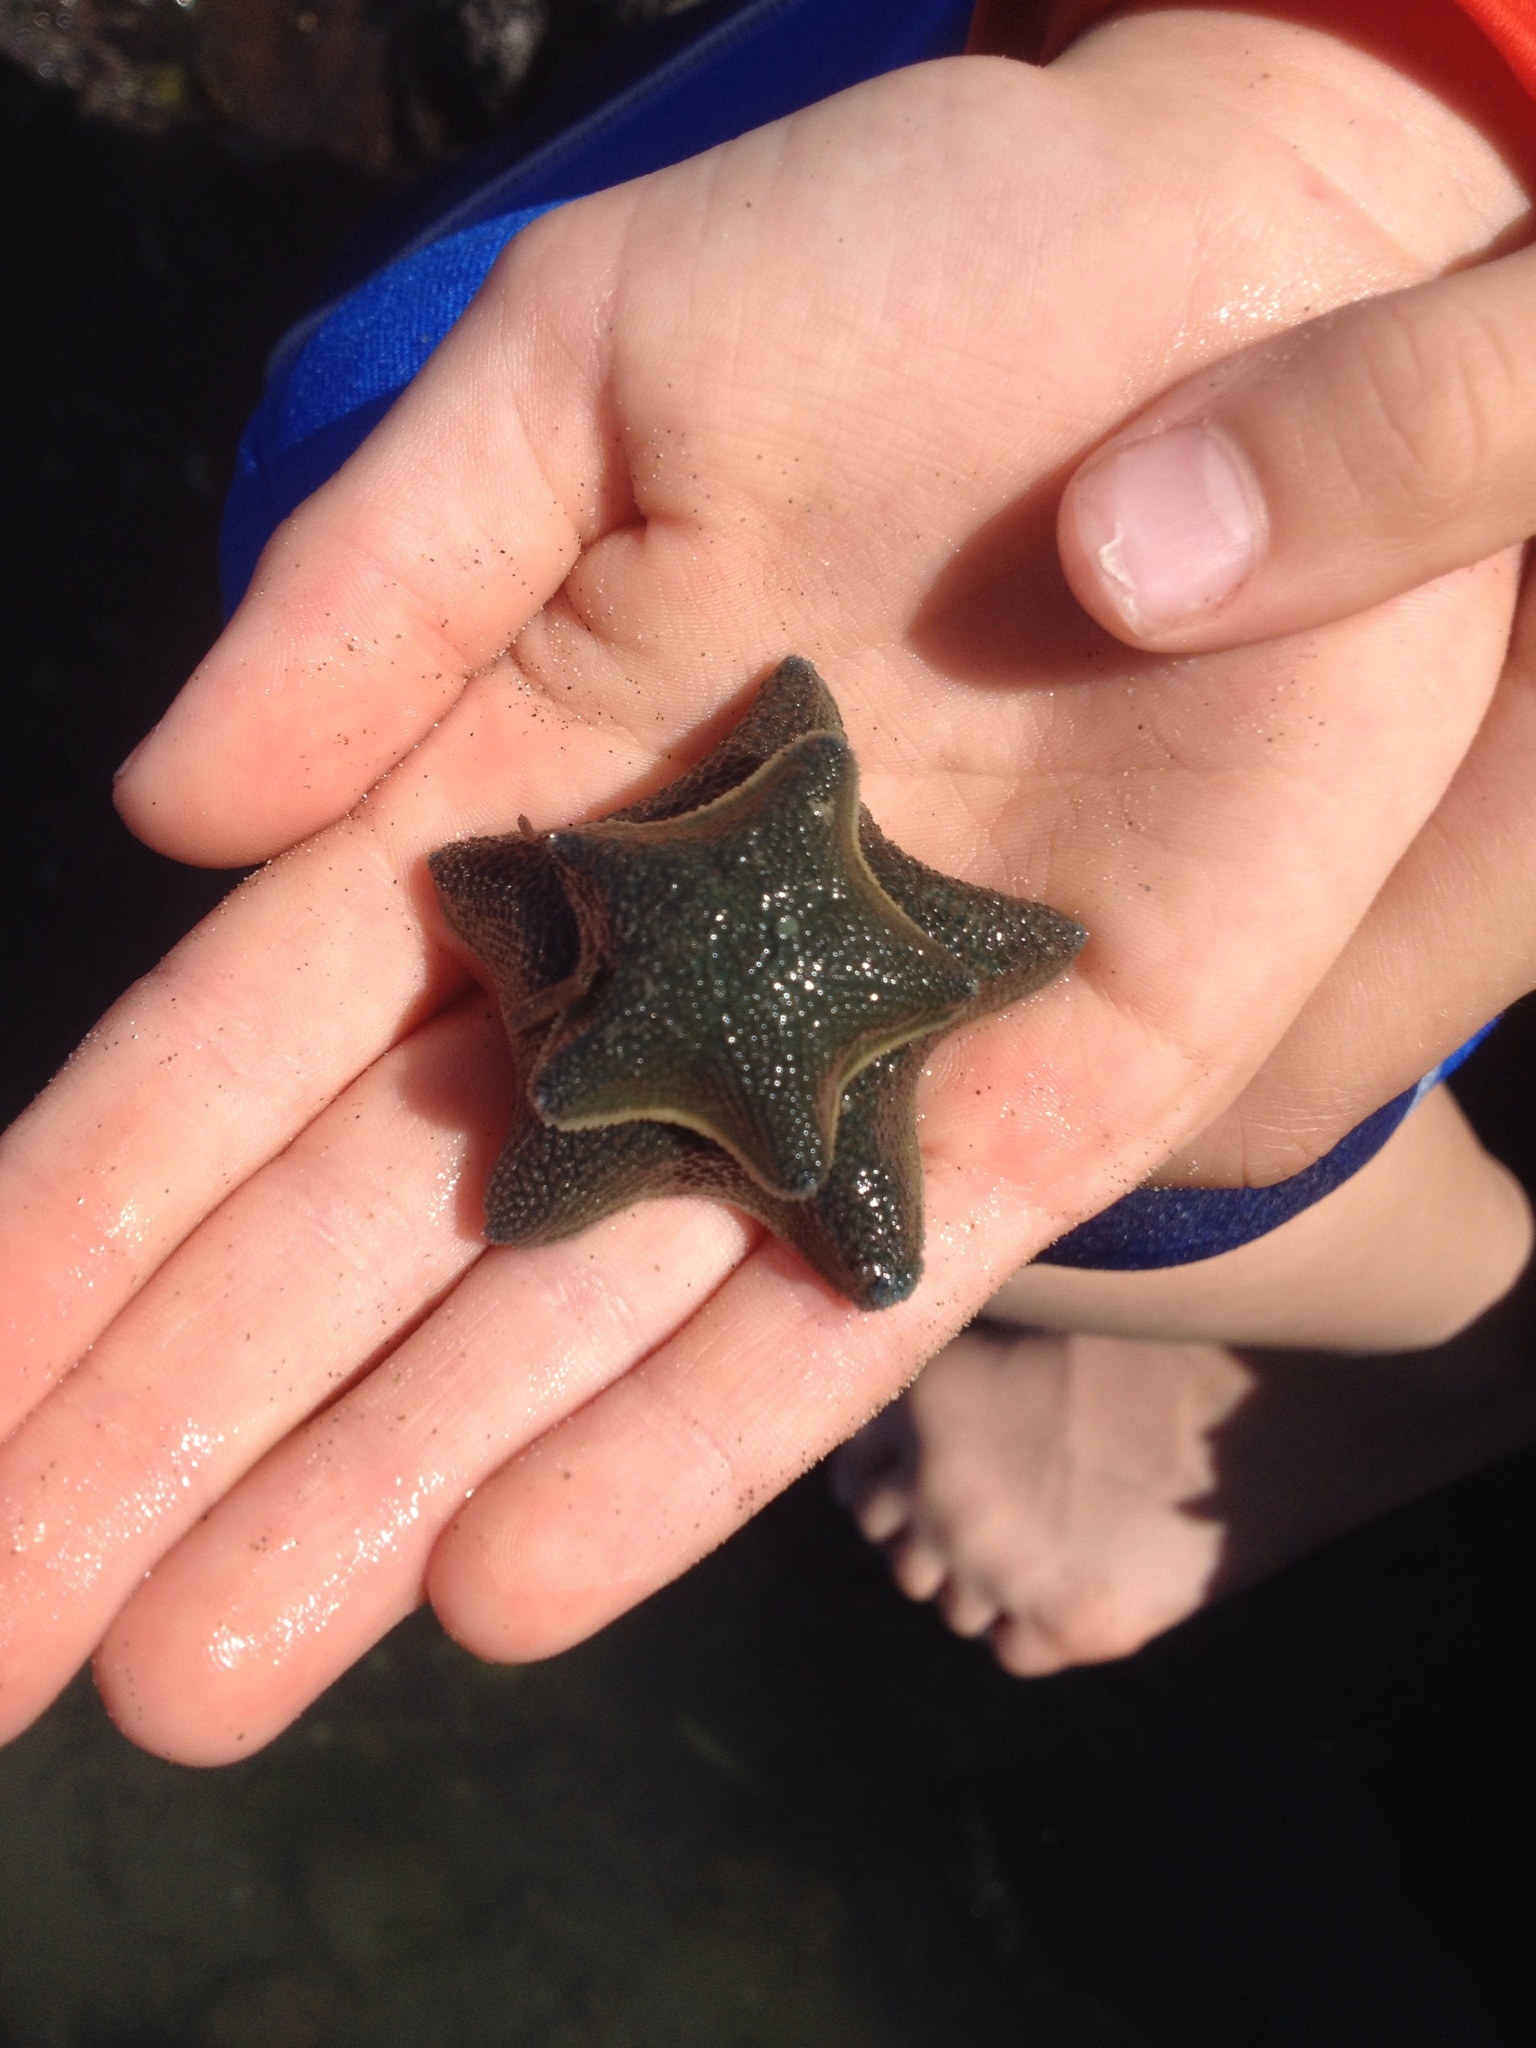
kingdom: Animalia
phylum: Echinodermata
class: Asteroidea
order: Valvatida
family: Asterinidae
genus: Patiriella
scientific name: Patiriella regularis
